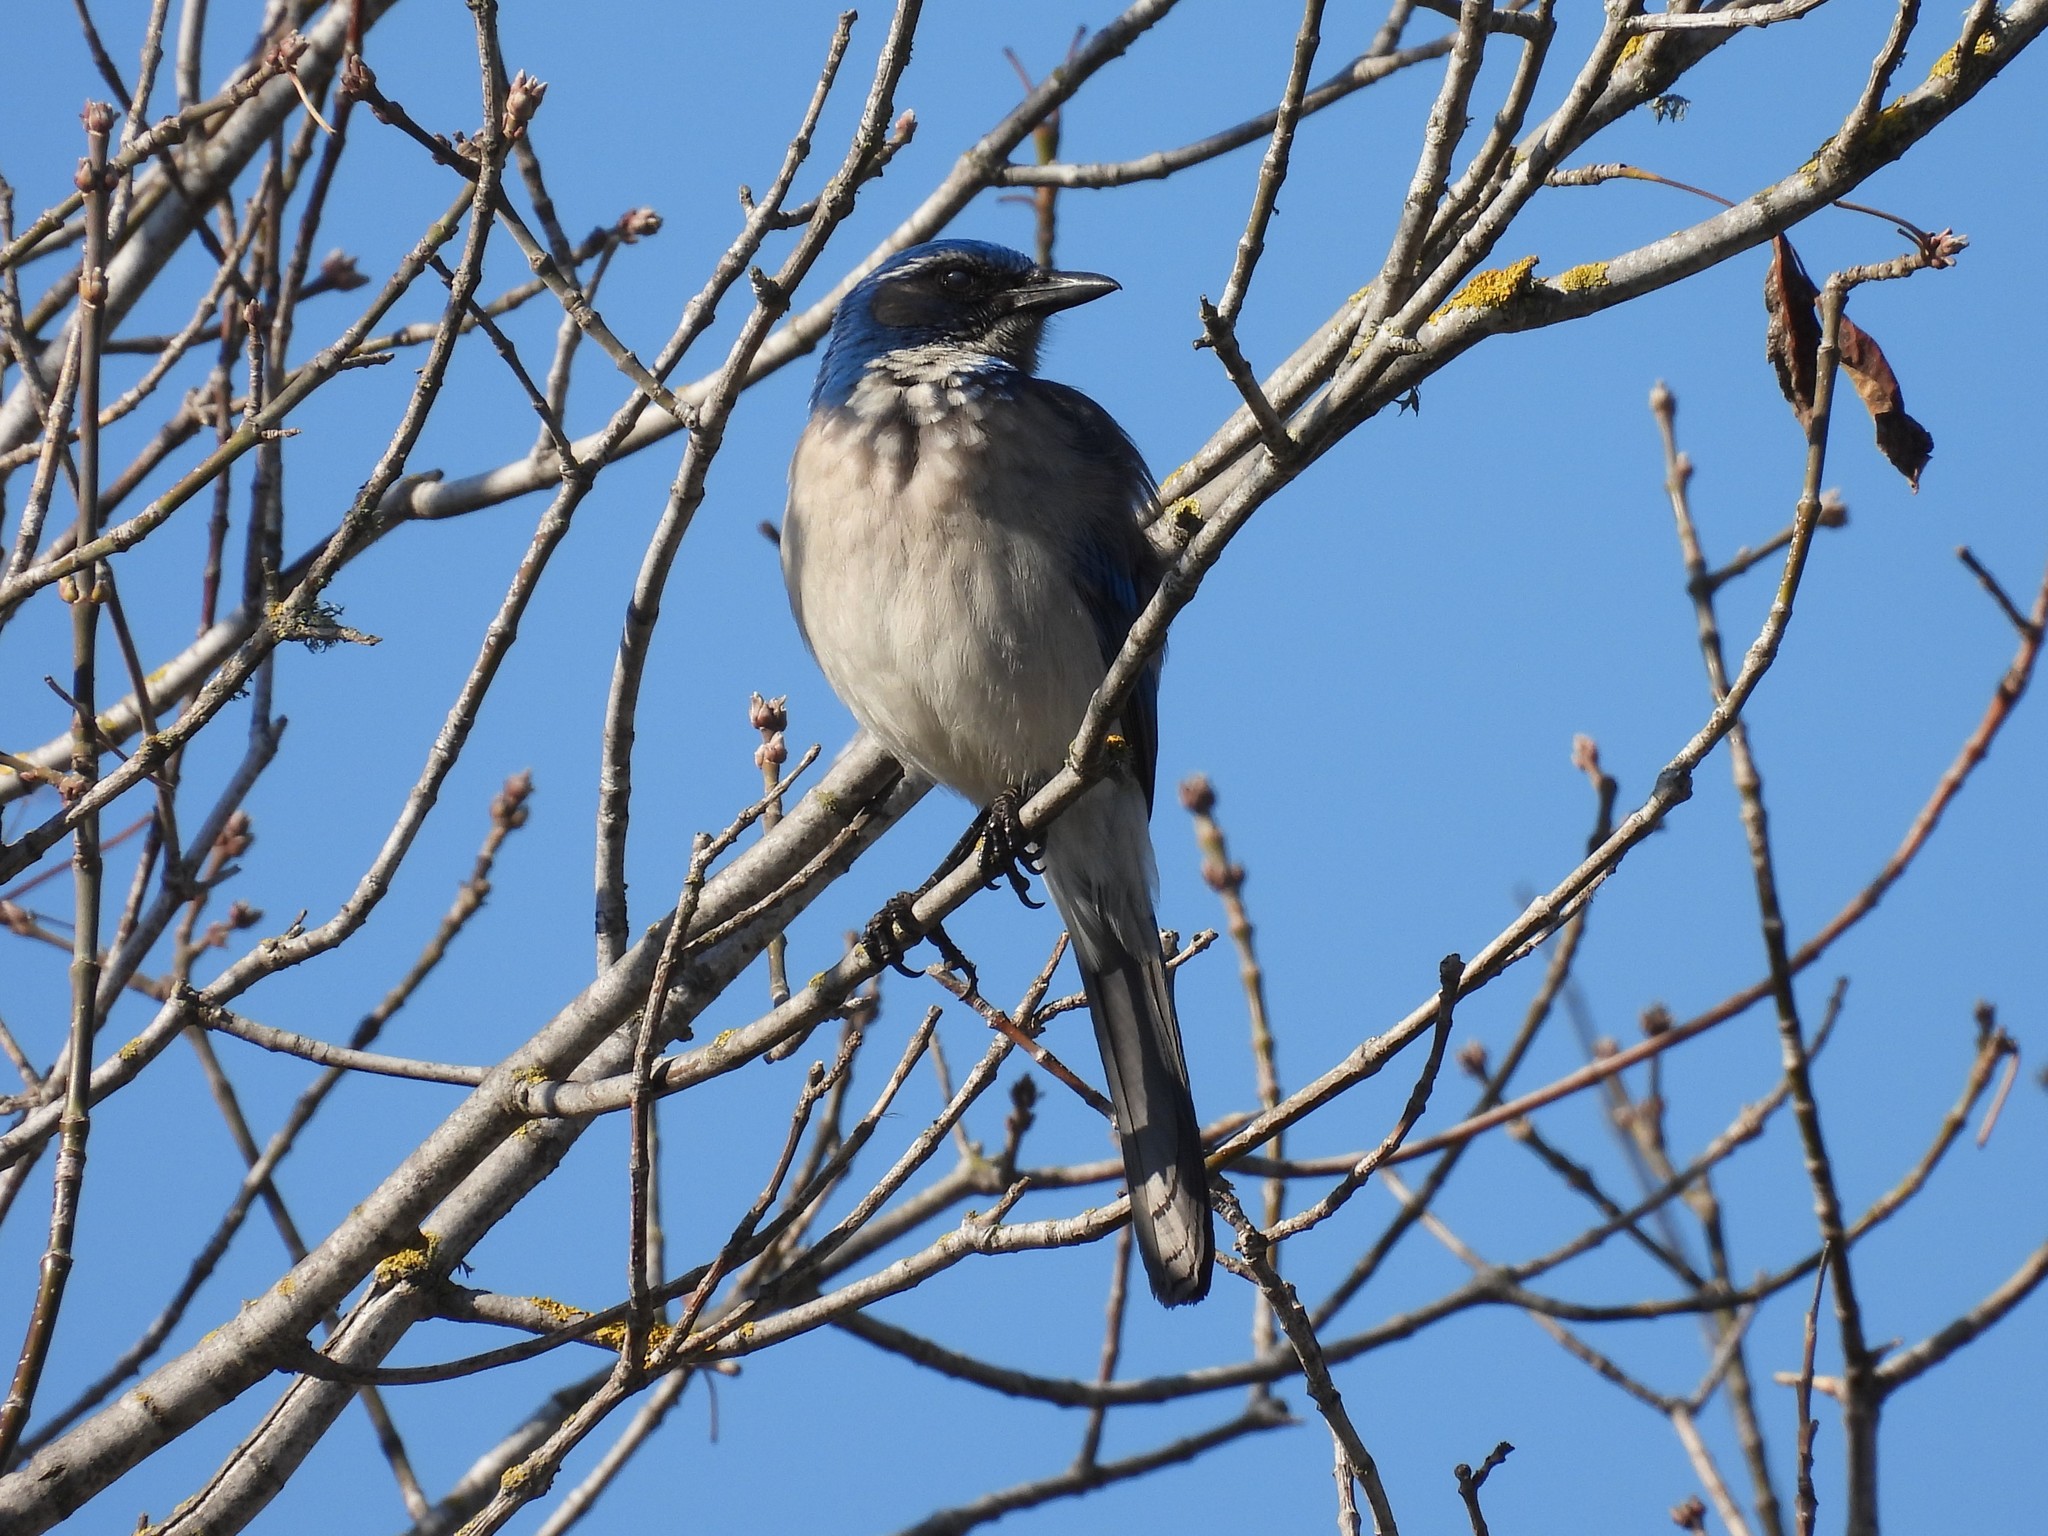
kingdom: Animalia
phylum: Chordata
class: Aves
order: Passeriformes
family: Corvidae
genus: Aphelocoma
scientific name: Aphelocoma californica
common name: California scrub-jay
